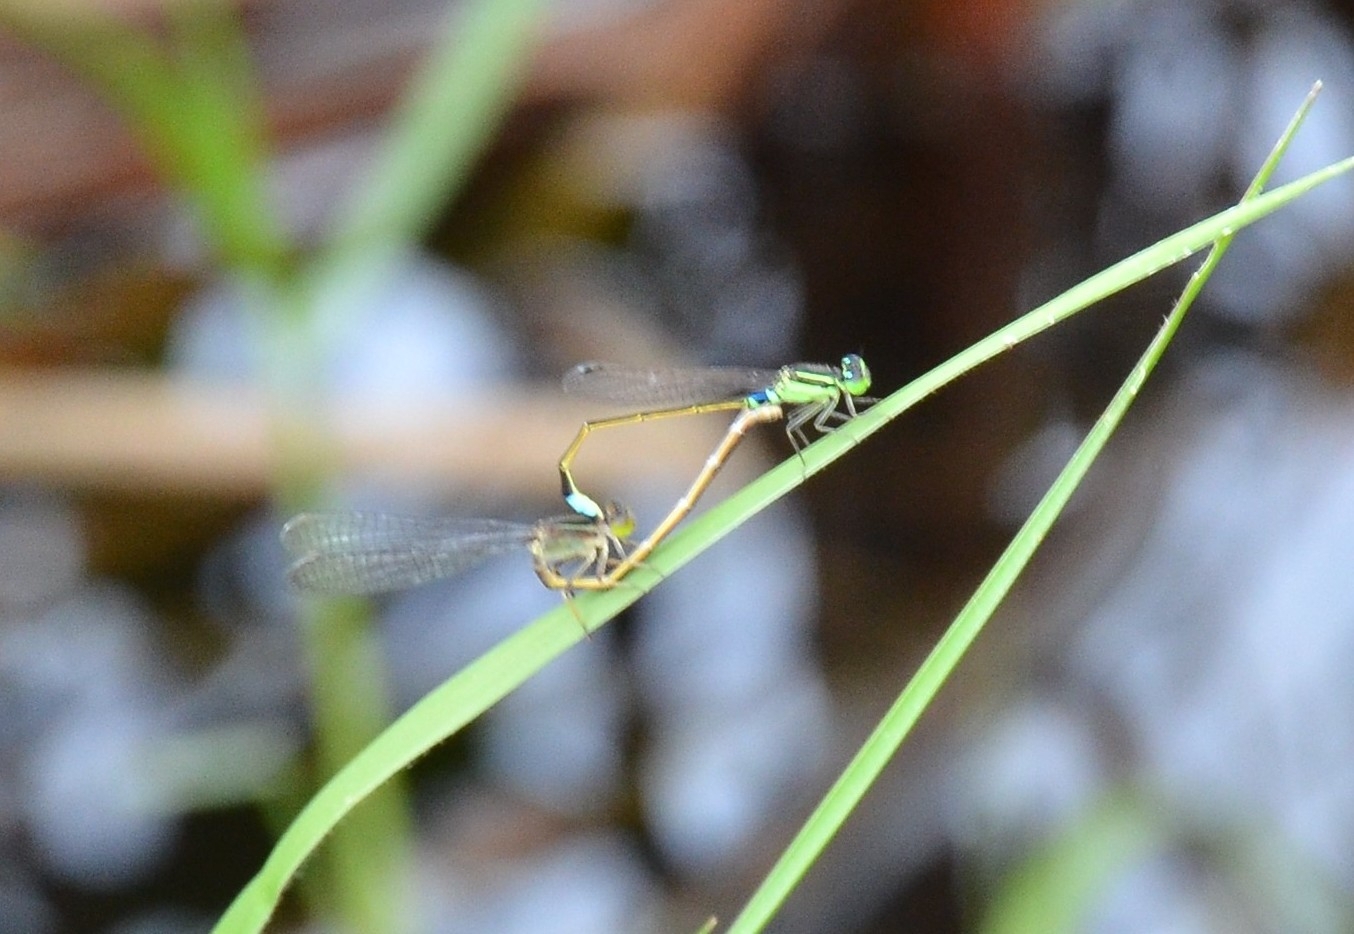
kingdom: Animalia
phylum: Arthropoda
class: Insecta
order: Odonata
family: Coenagrionidae
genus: Ischnura
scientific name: Ischnura senegalensis
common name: Tropical bluetail
